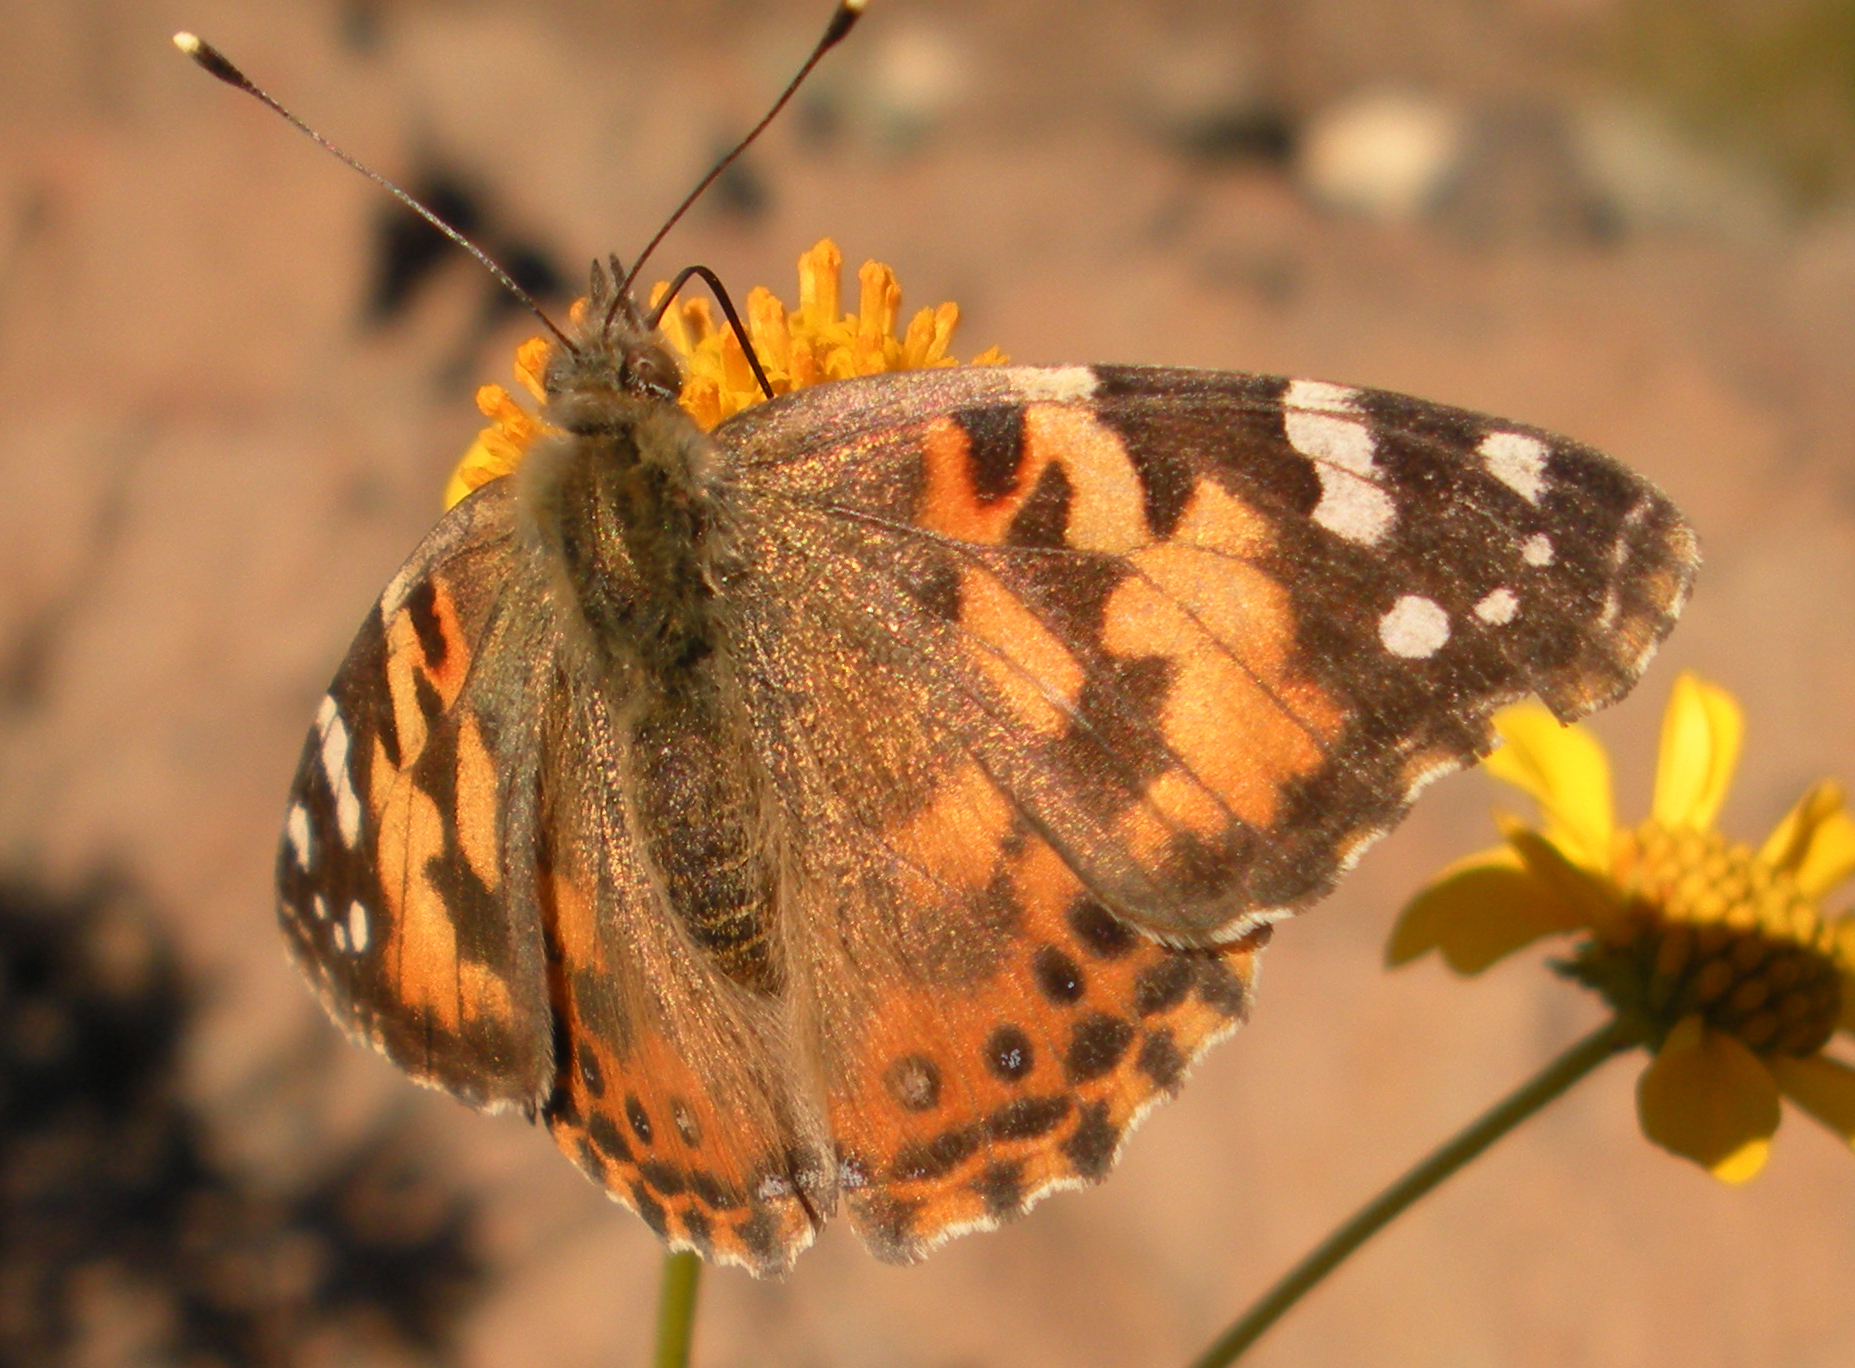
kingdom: Animalia
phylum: Arthropoda
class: Insecta
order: Lepidoptera
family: Nymphalidae
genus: Vanessa
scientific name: Vanessa cardui
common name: Painted lady
